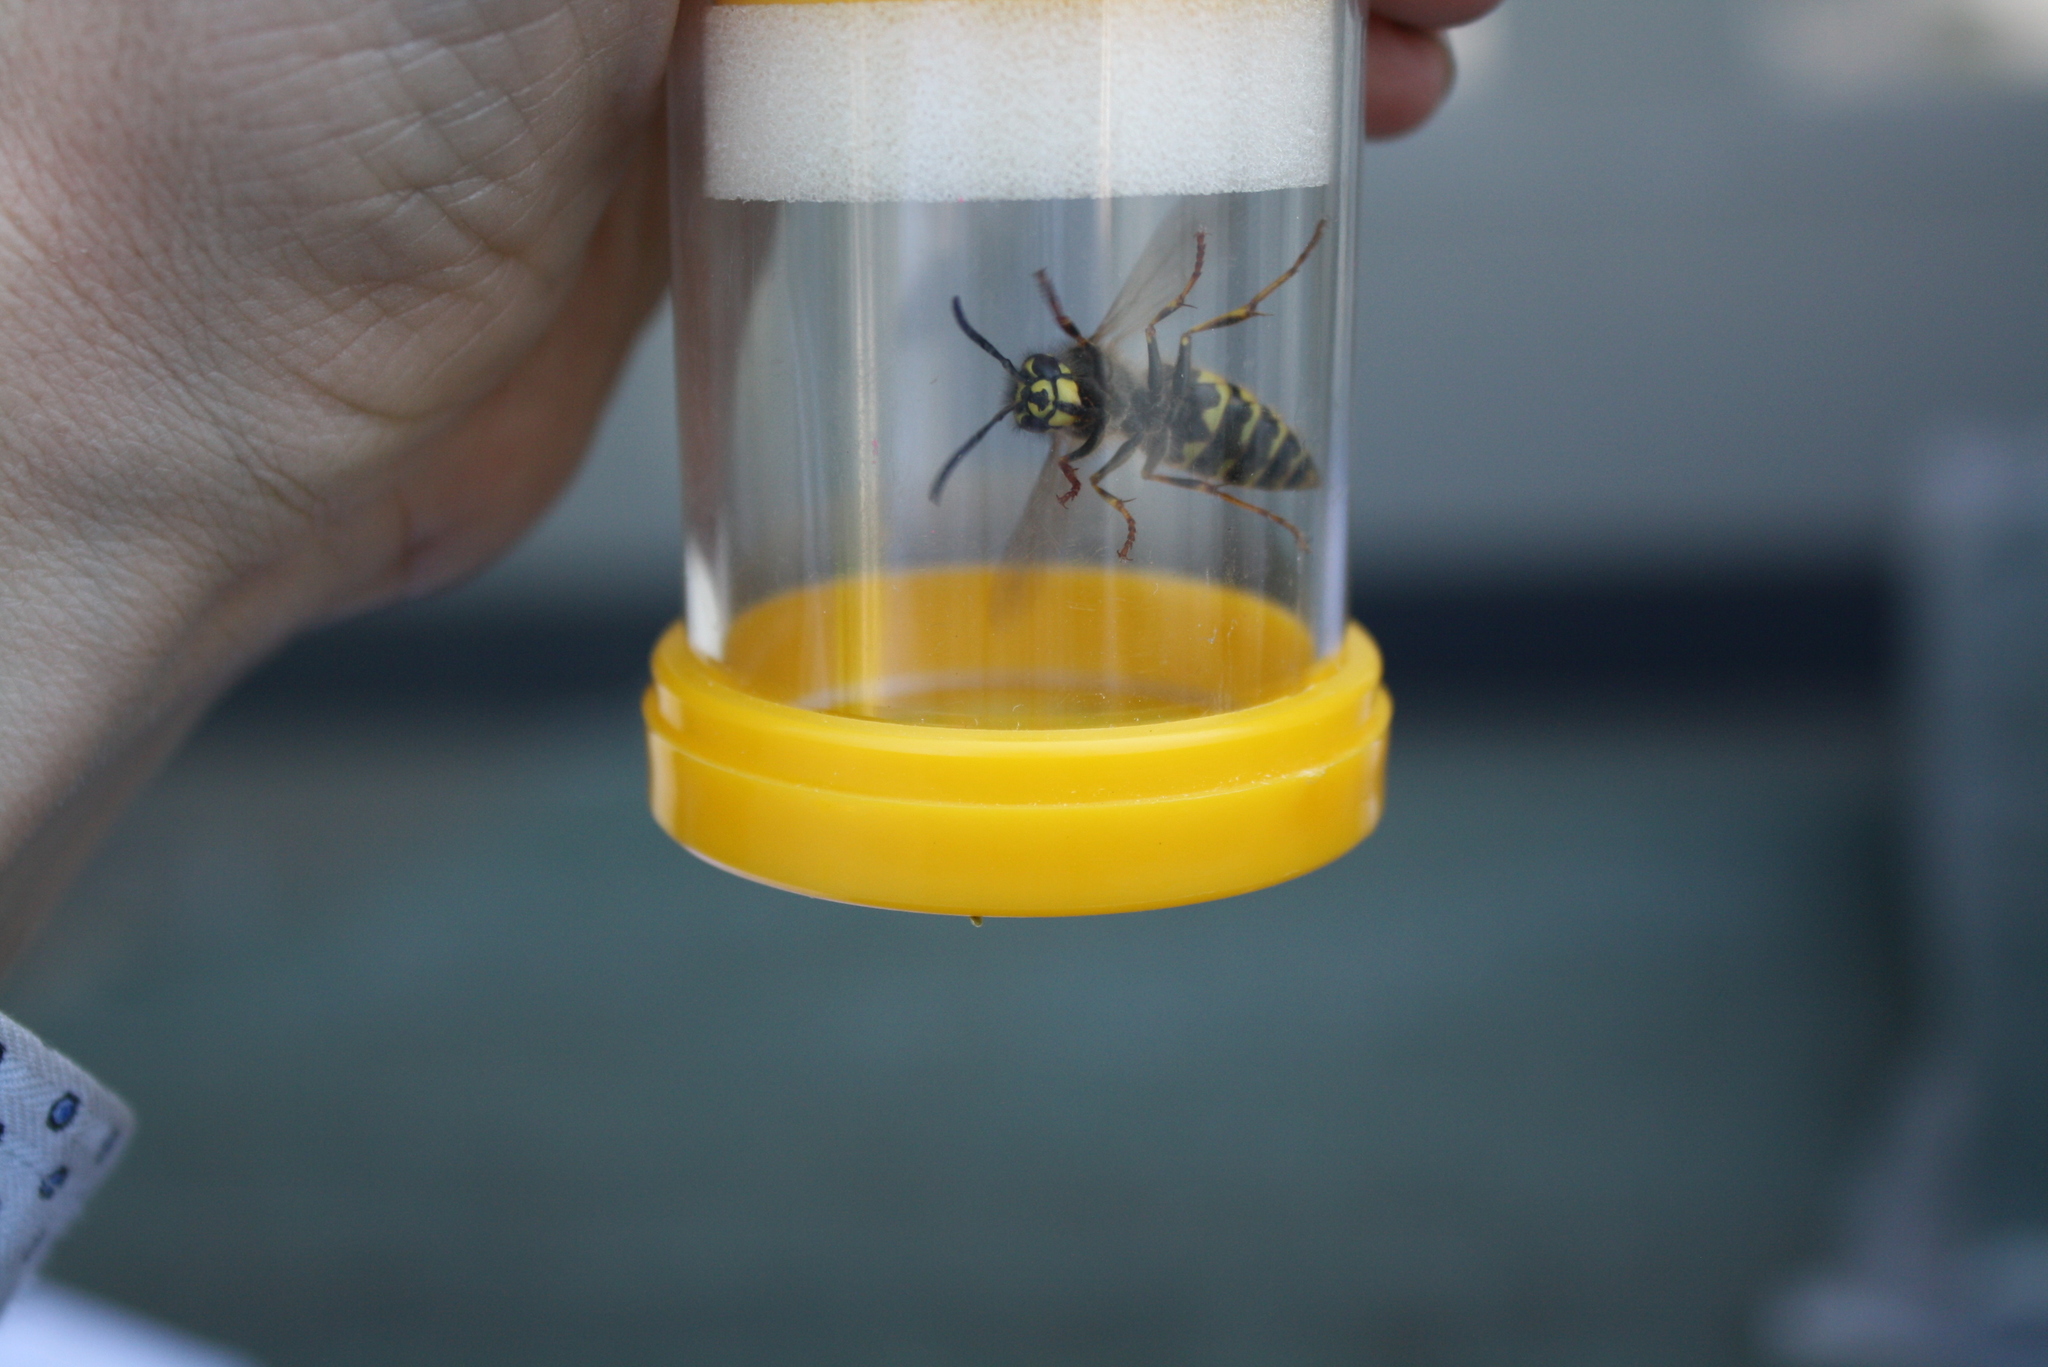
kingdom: Animalia
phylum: Arthropoda
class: Insecta
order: Hymenoptera
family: Vespidae
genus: Vespula
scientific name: Vespula vulgaris
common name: Common wasp
